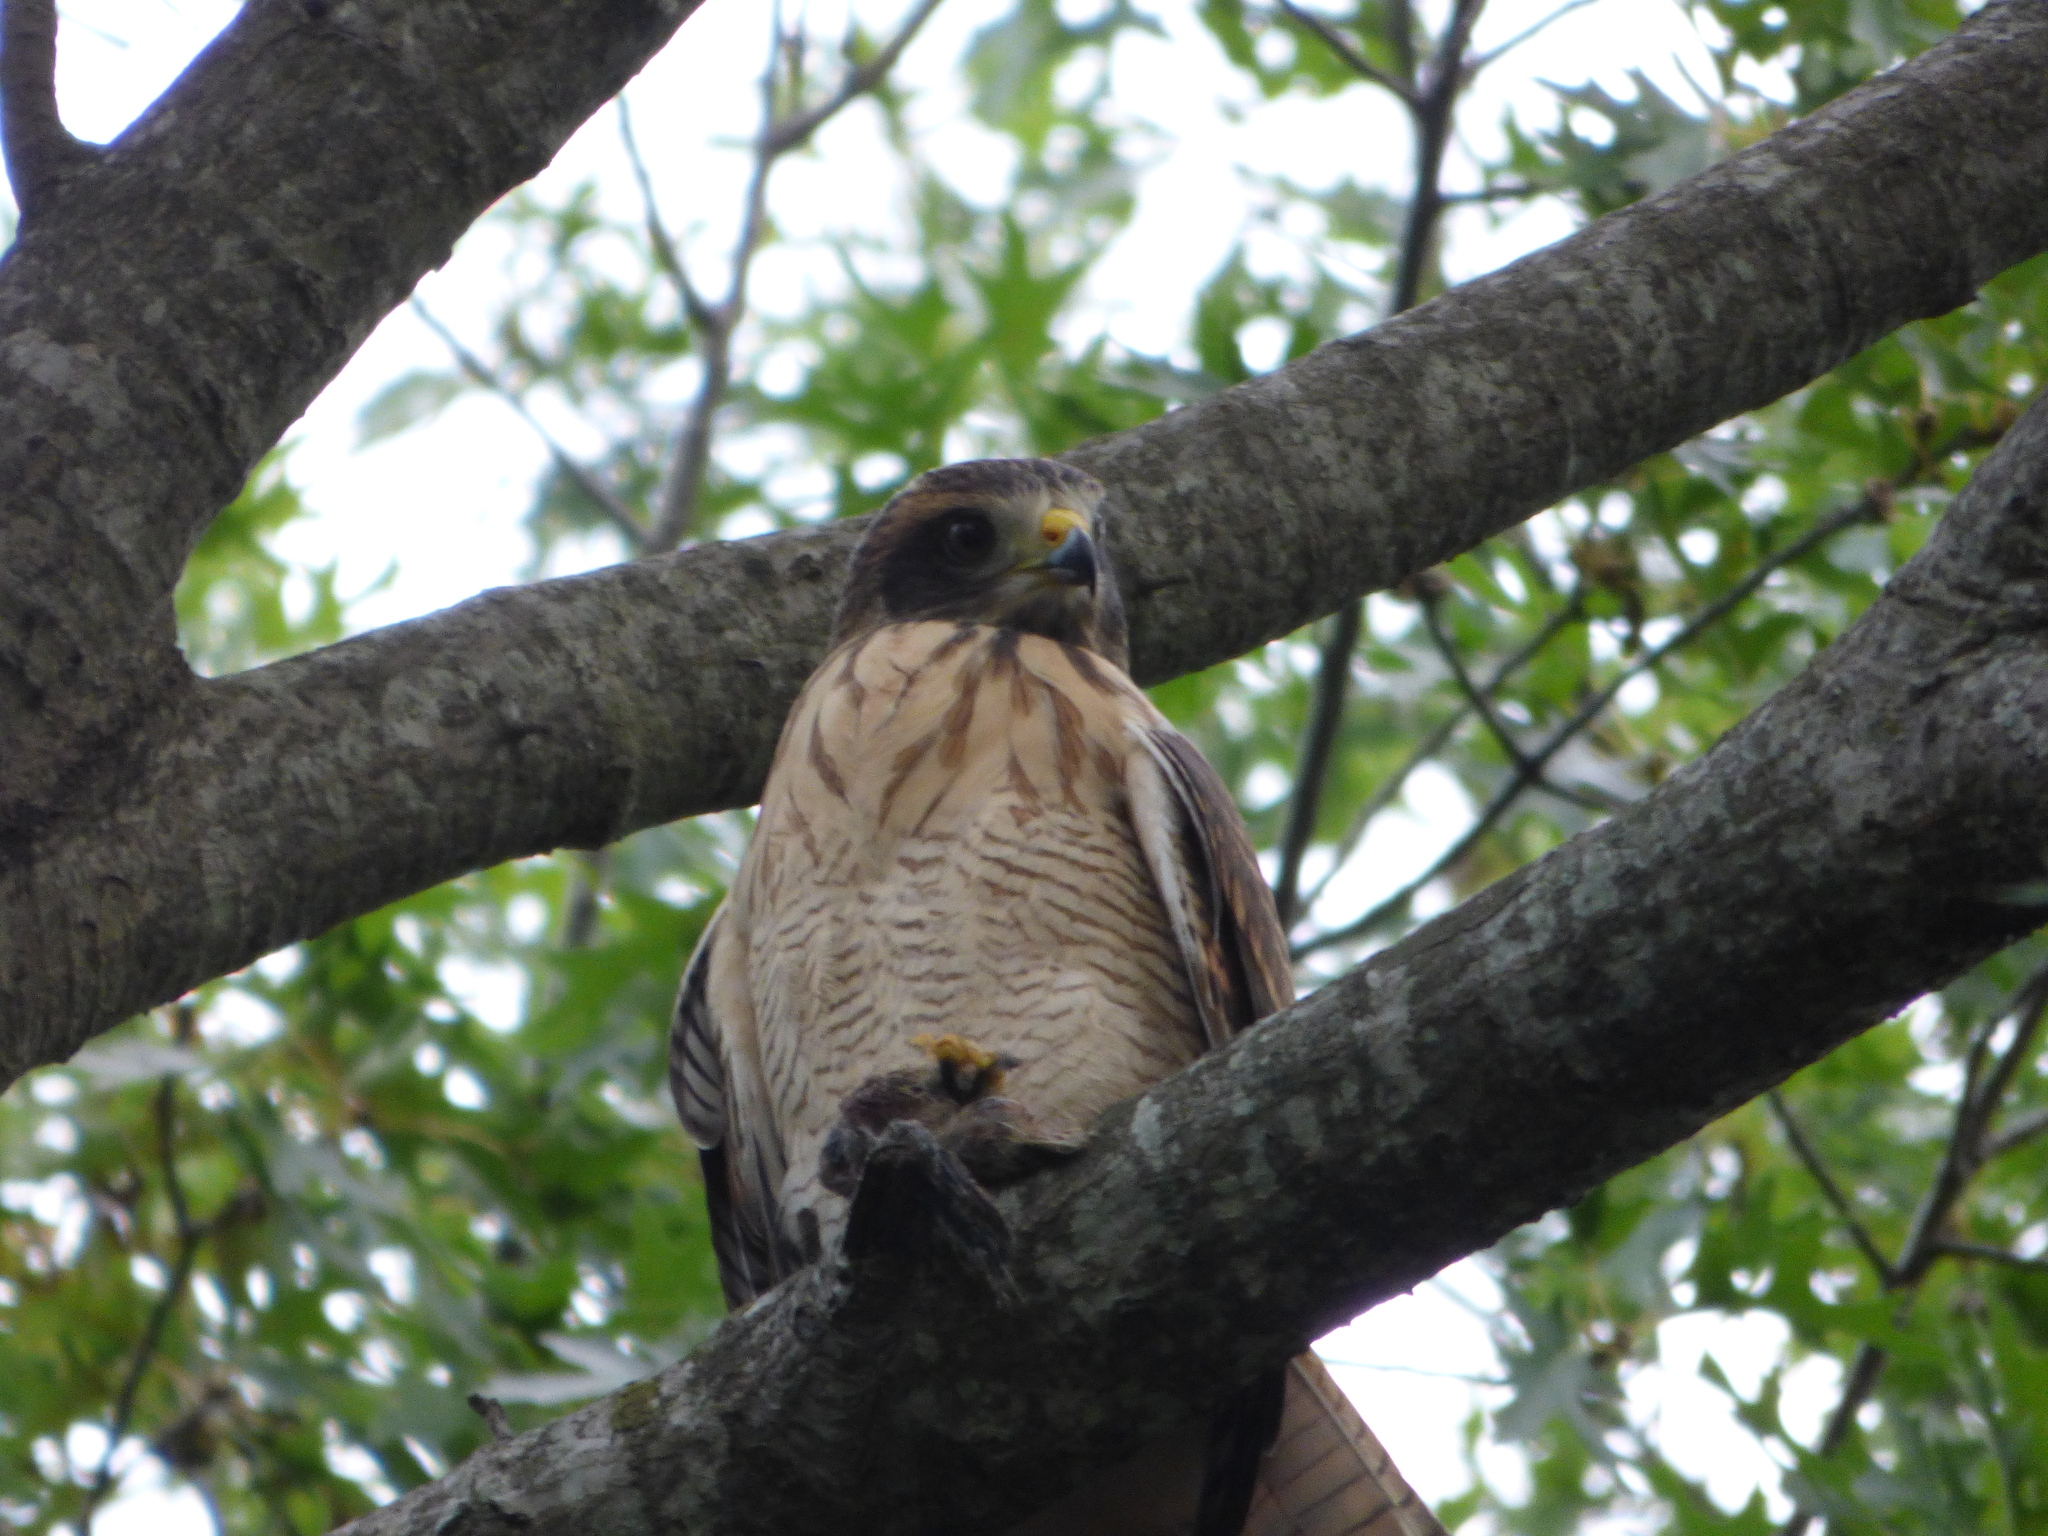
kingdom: Animalia
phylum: Chordata
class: Aves
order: Accipitriformes
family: Accipitridae
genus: Rupornis
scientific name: Rupornis magnirostris
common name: Roadside hawk
